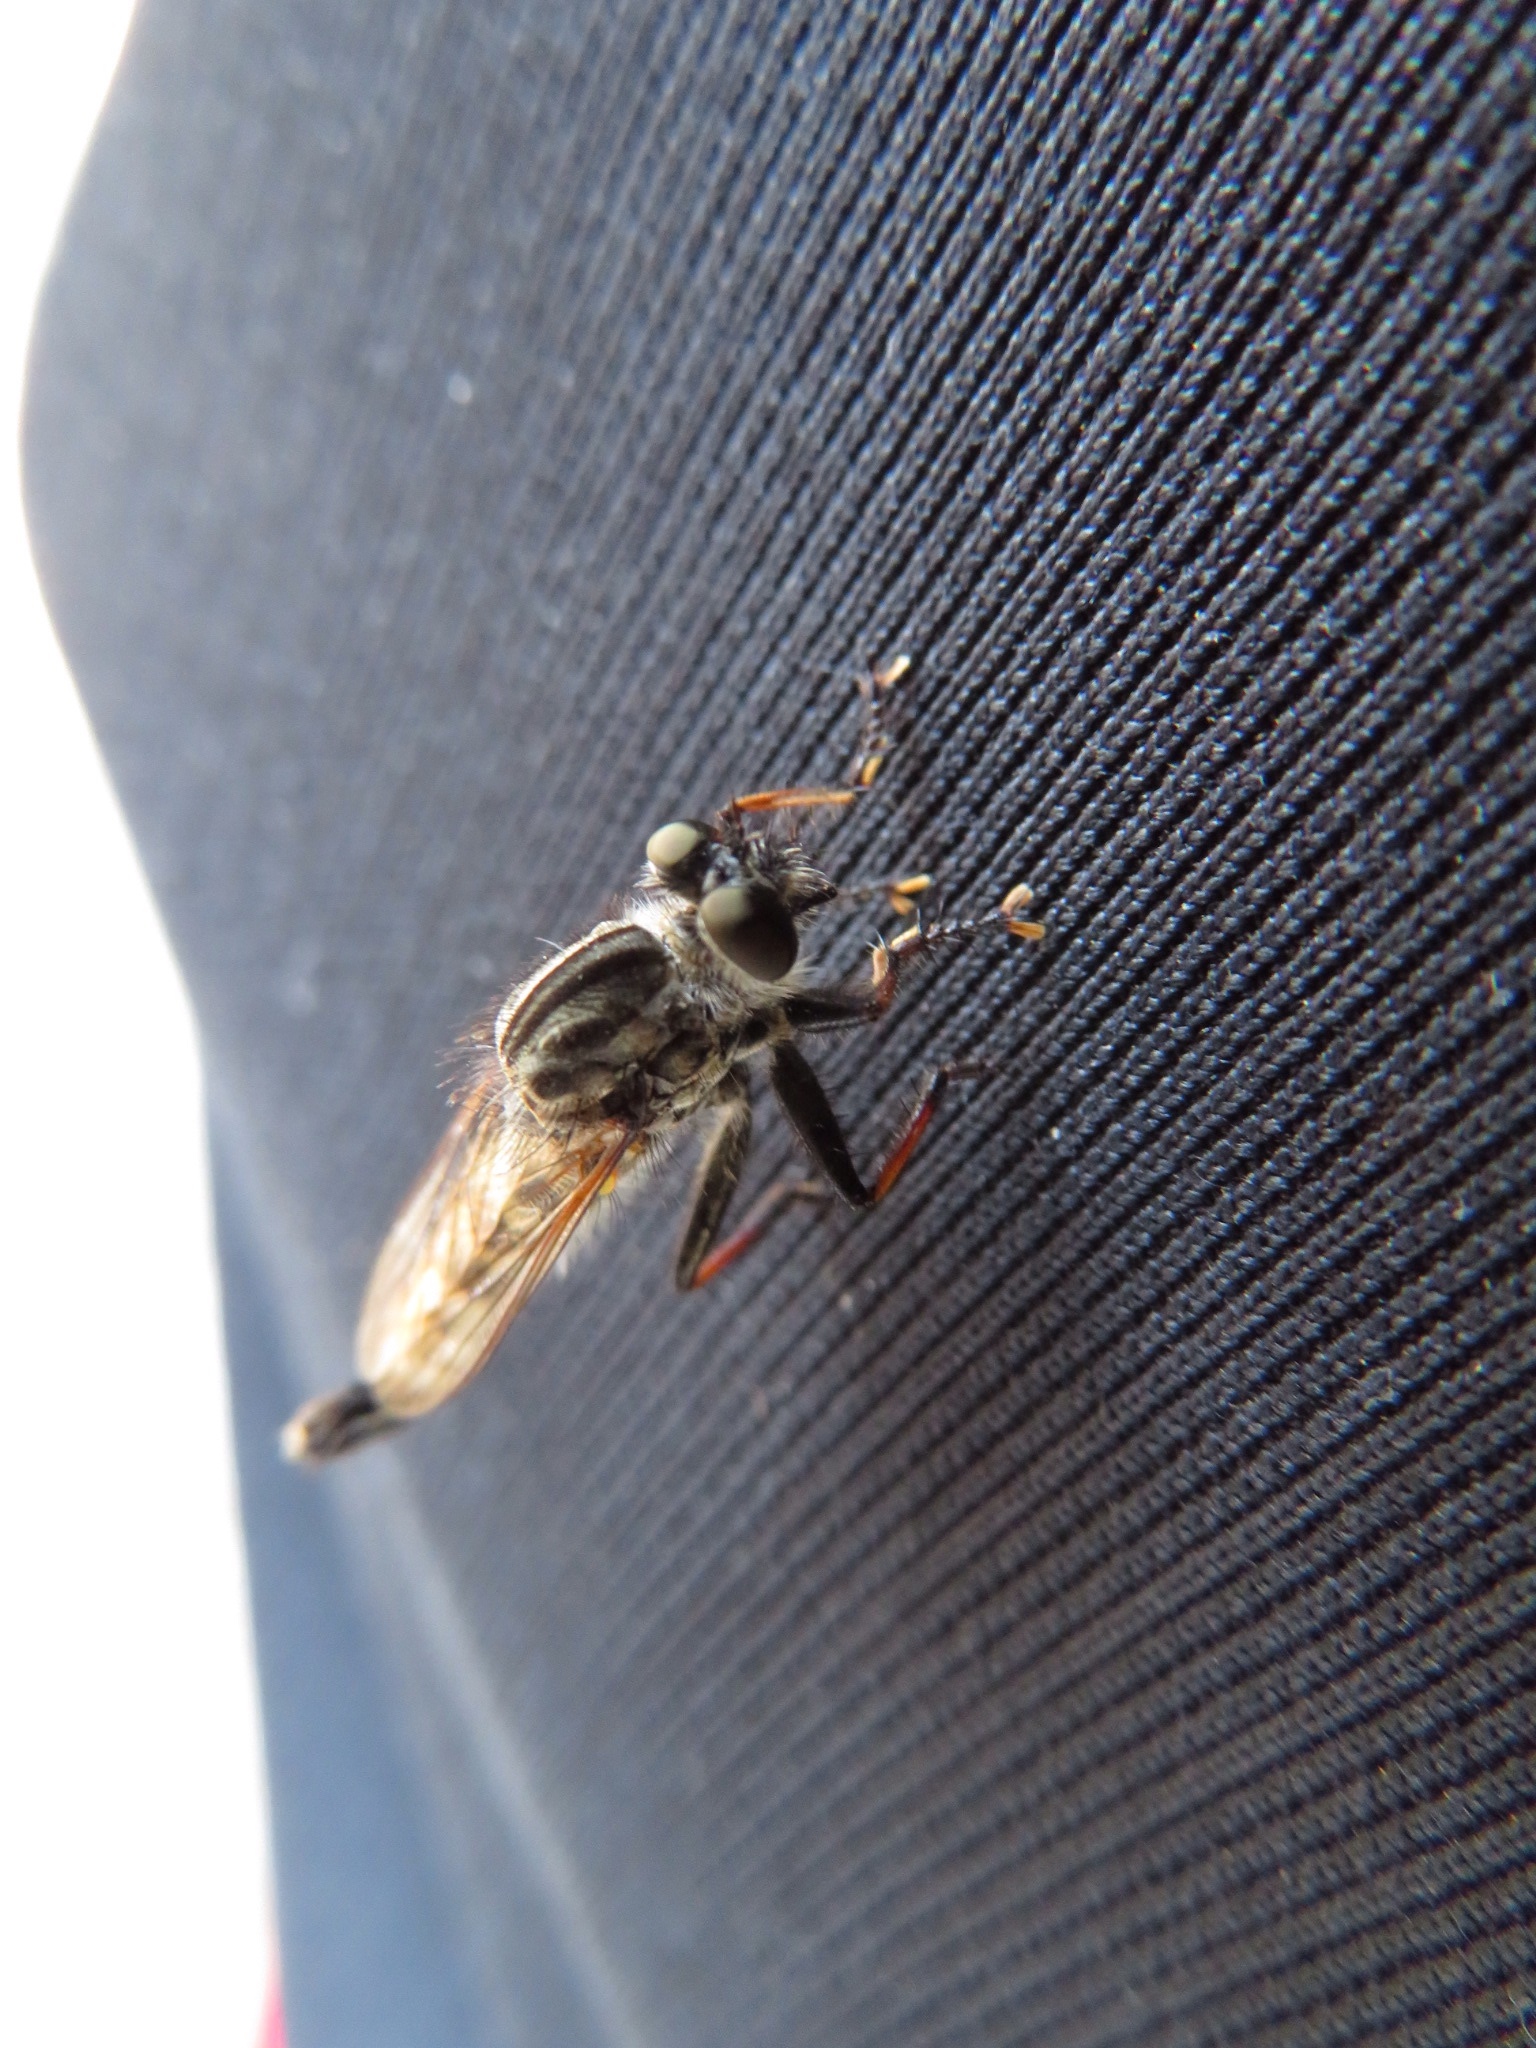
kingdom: Animalia
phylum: Arthropoda
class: Insecta
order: Diptera
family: Asilidae
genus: Efferia
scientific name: Efferia aestuans
